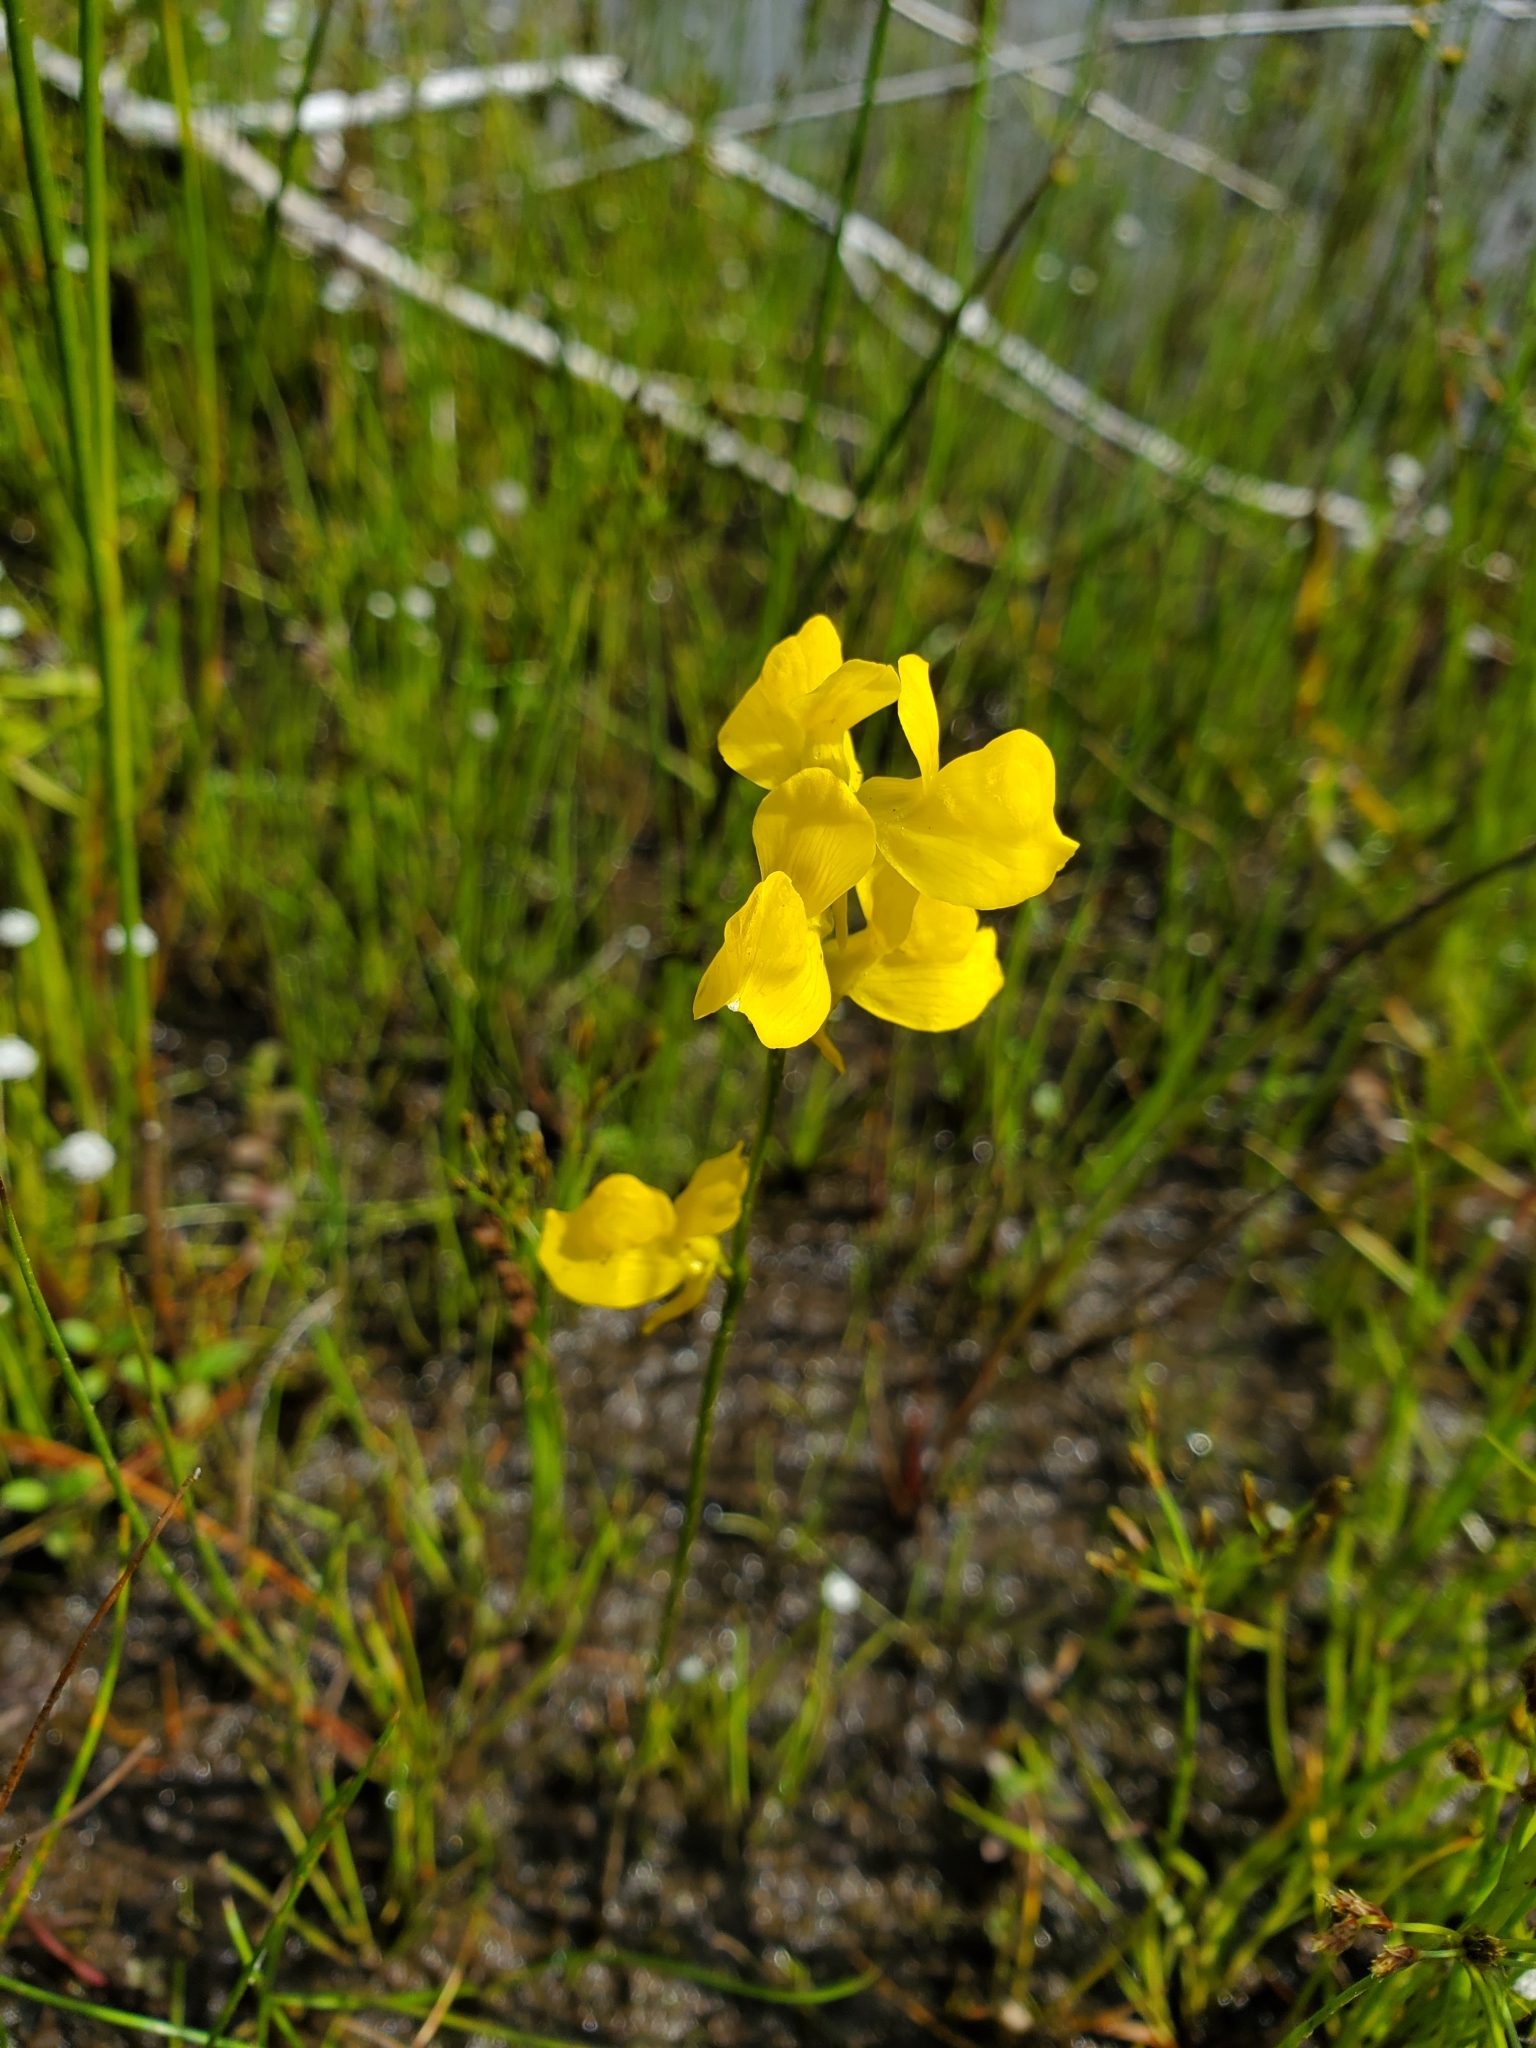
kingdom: Plantae
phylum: Tracheophyta
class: Magnoliopsida
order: Lamiales
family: Lentibulariaceae
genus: Utricularia
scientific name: Utricularia cornuta
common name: Horned bladderwort
